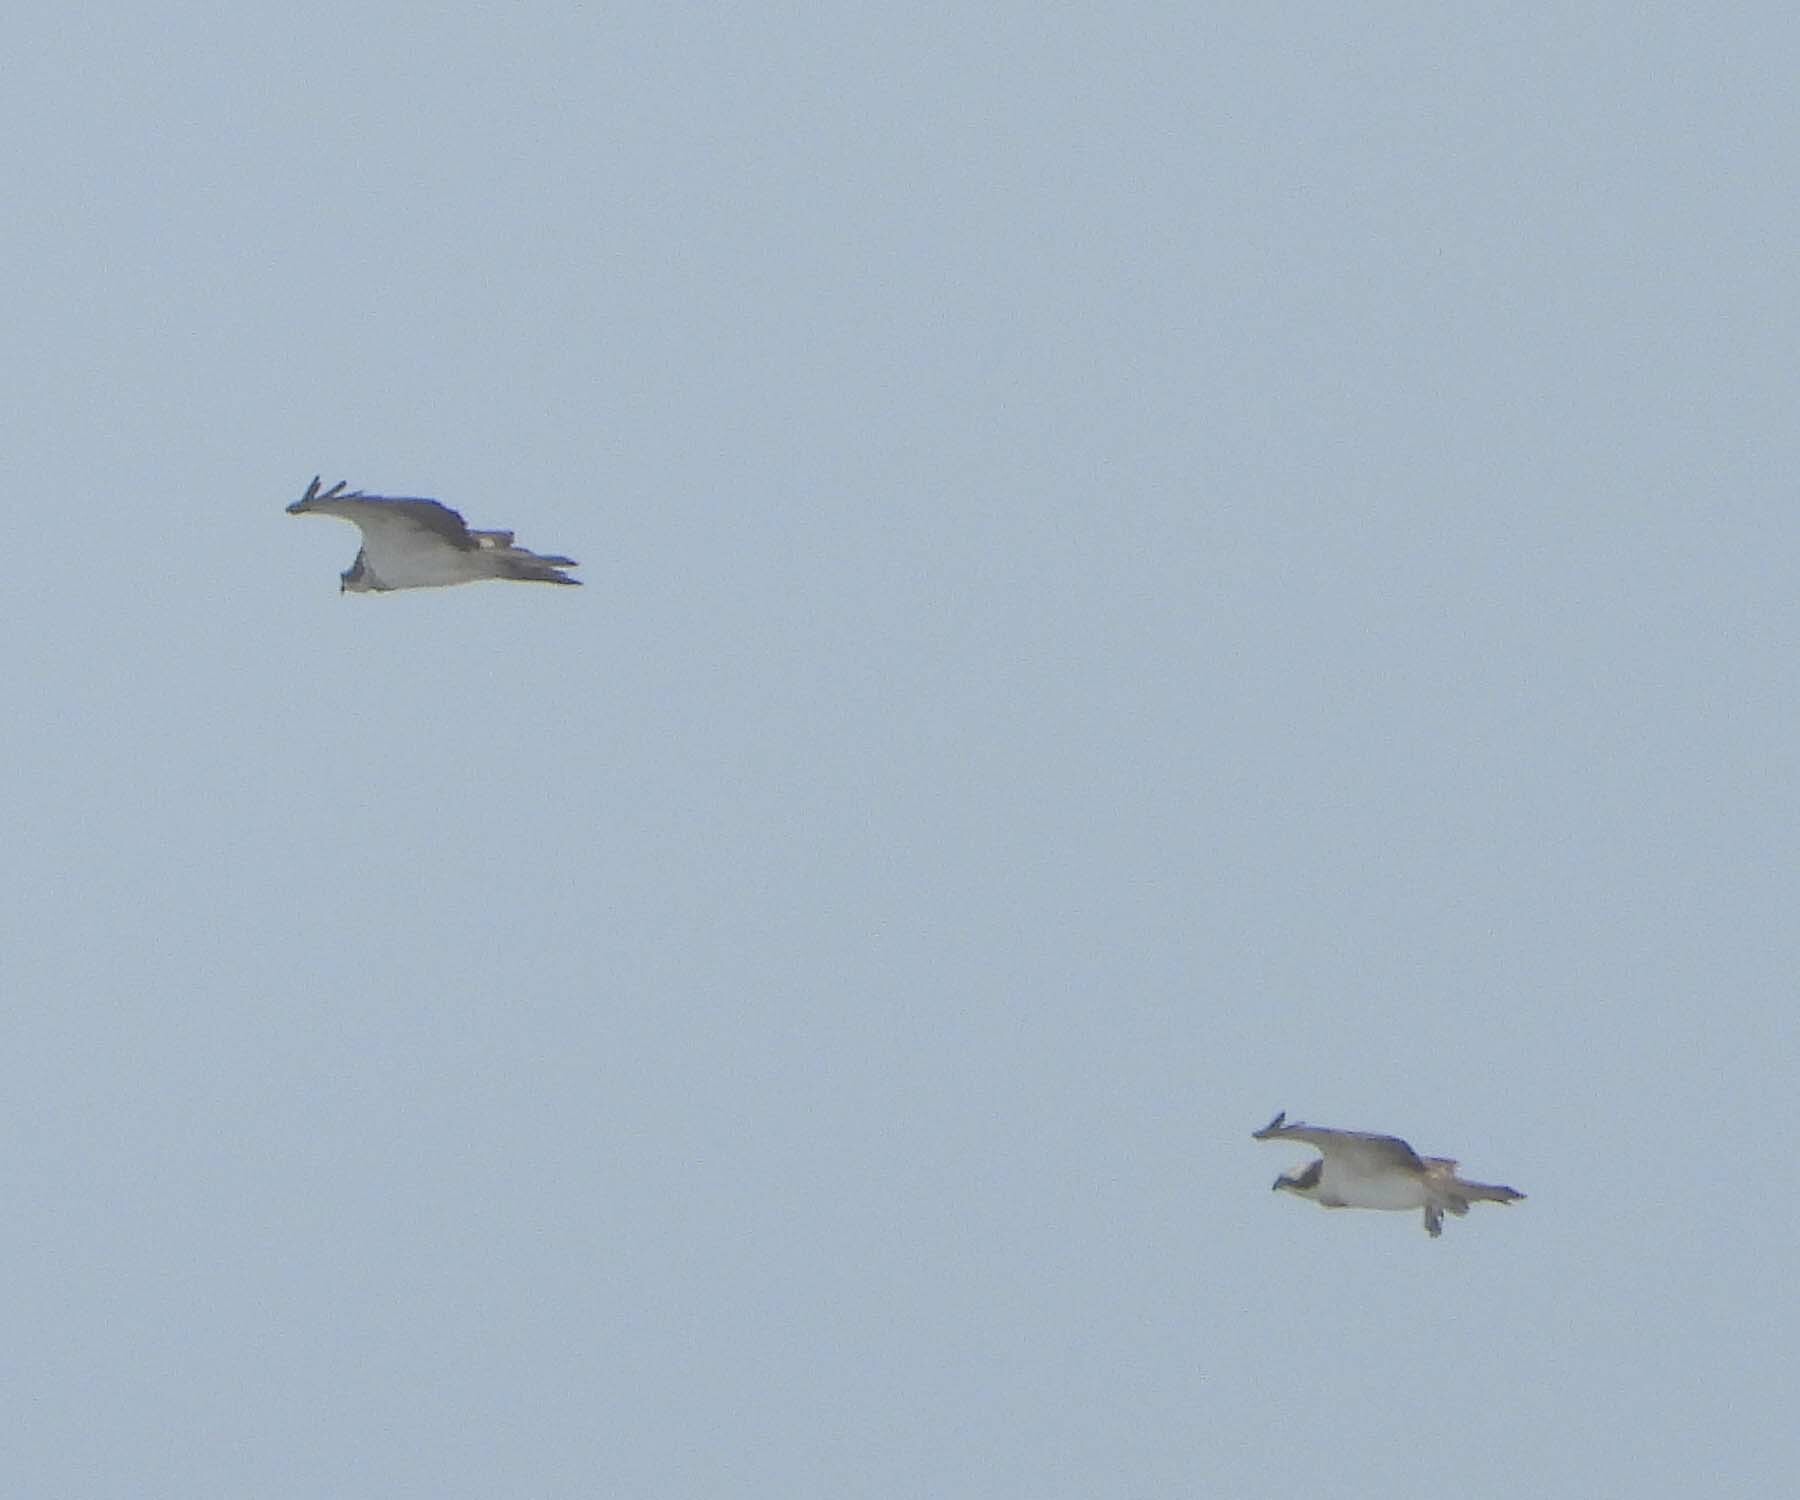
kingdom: Animalia
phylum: Chordata
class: Aves
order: Accipitriformes
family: Pandionidae
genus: Pandion
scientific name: Pandion haliaetus
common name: Osprey
